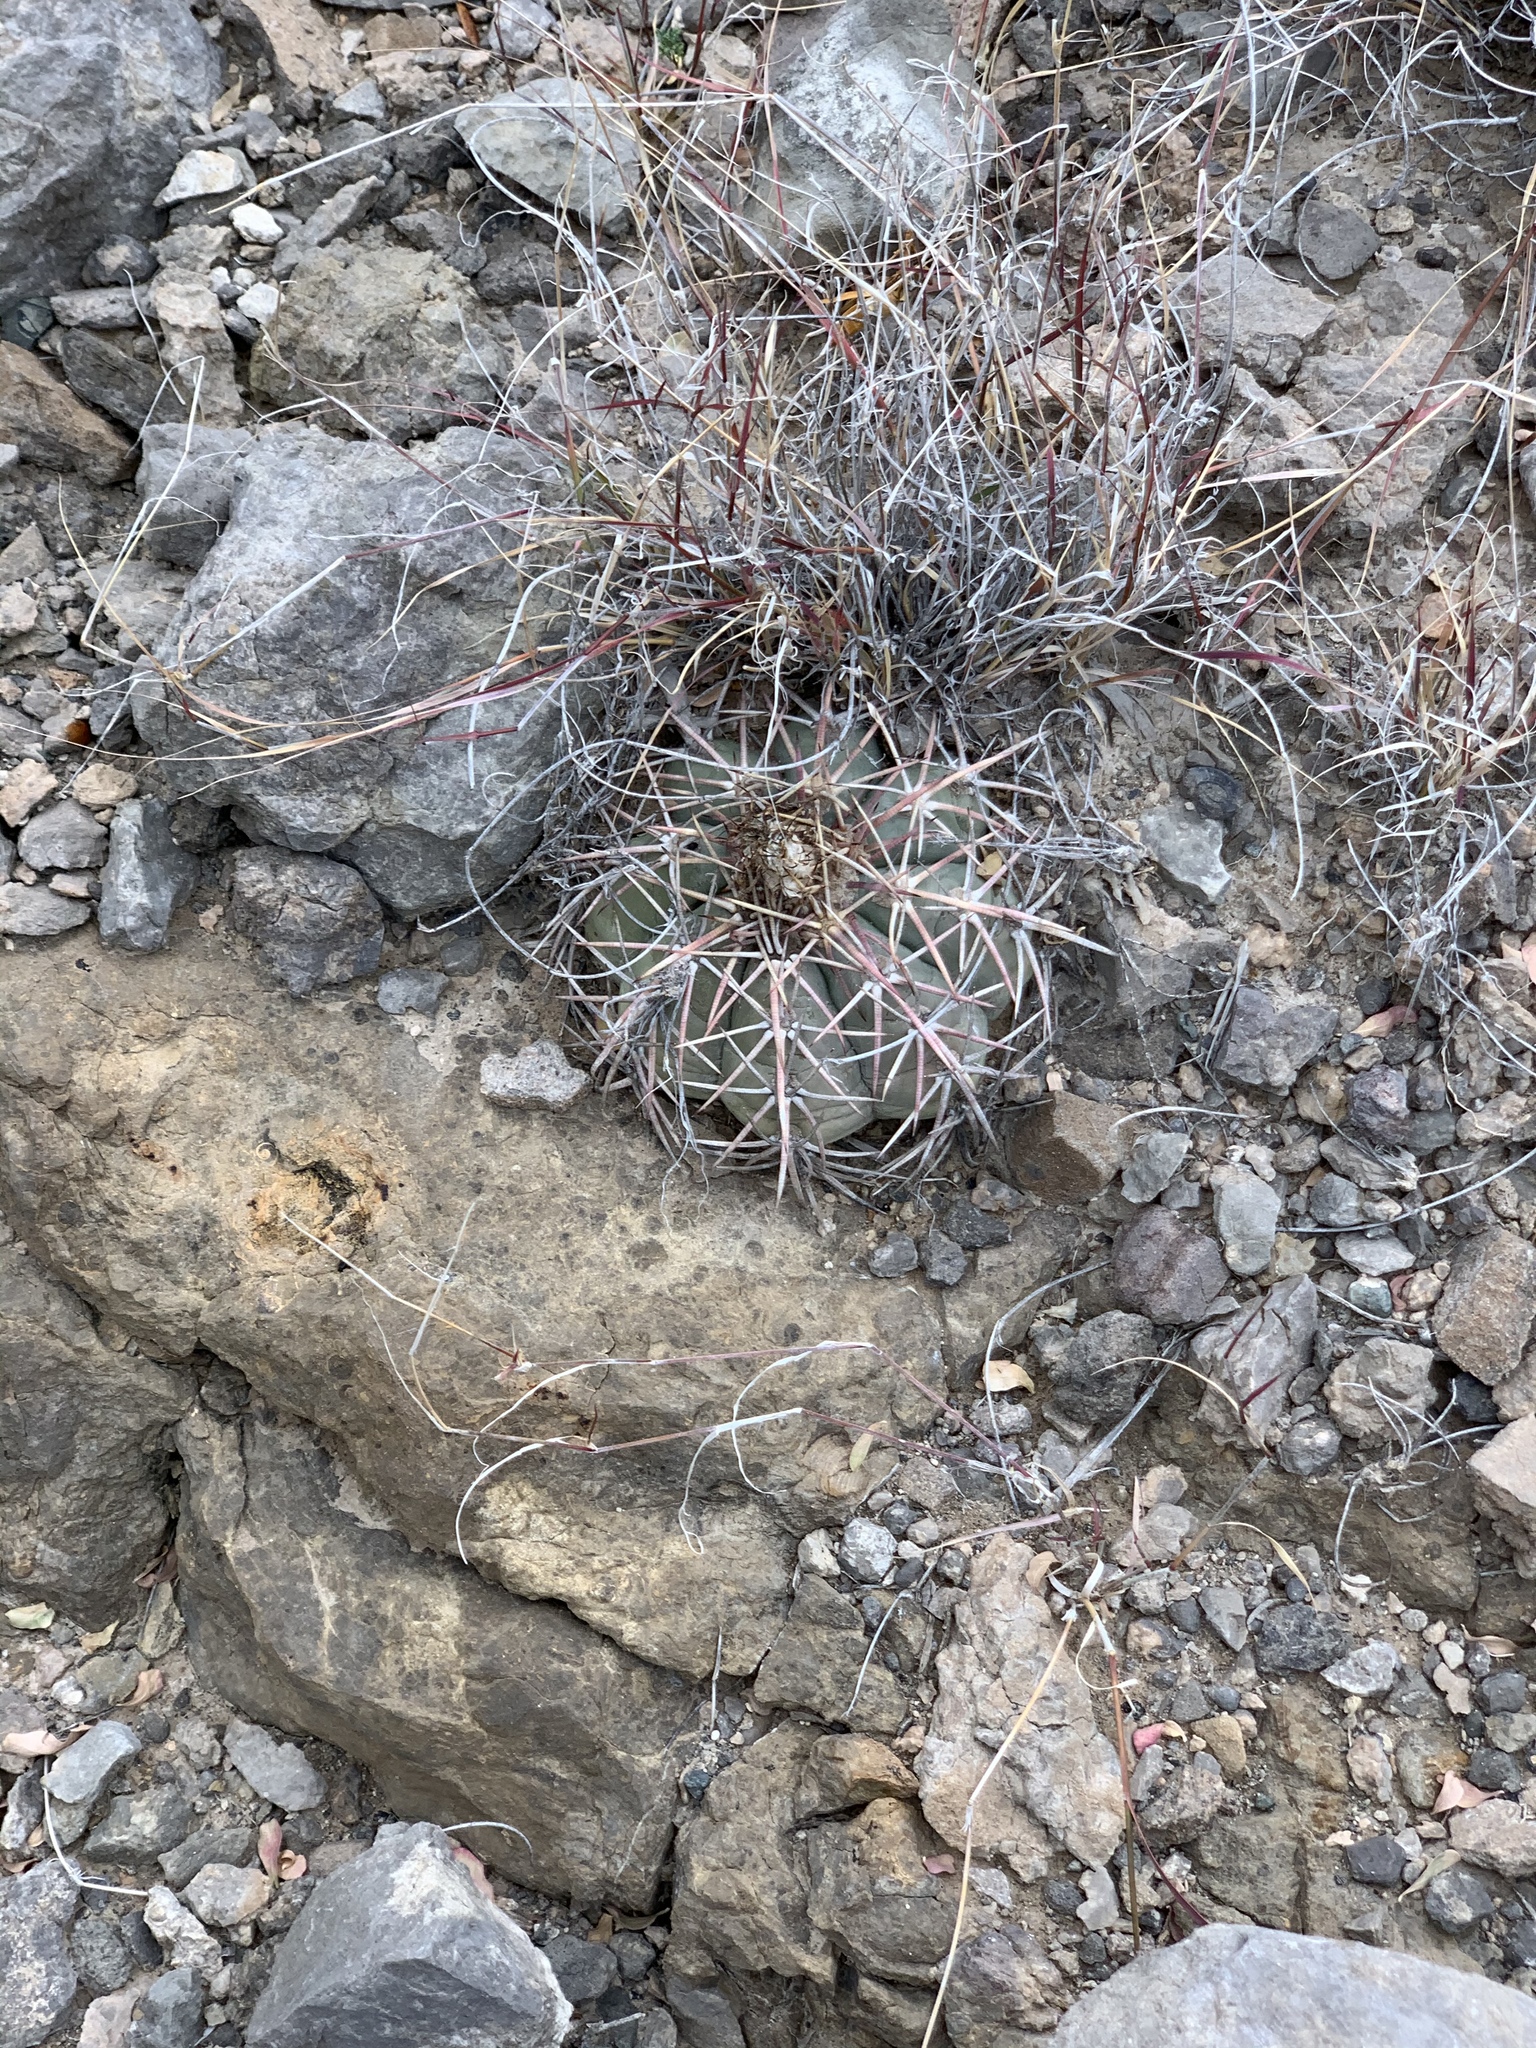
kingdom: Plantae
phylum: Tracheophyta
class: Magnoliopsida
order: Caryophyllales
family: Cactaceae
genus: Echinocactus
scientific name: Echinocactus horizonthalonius
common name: Devilshead
